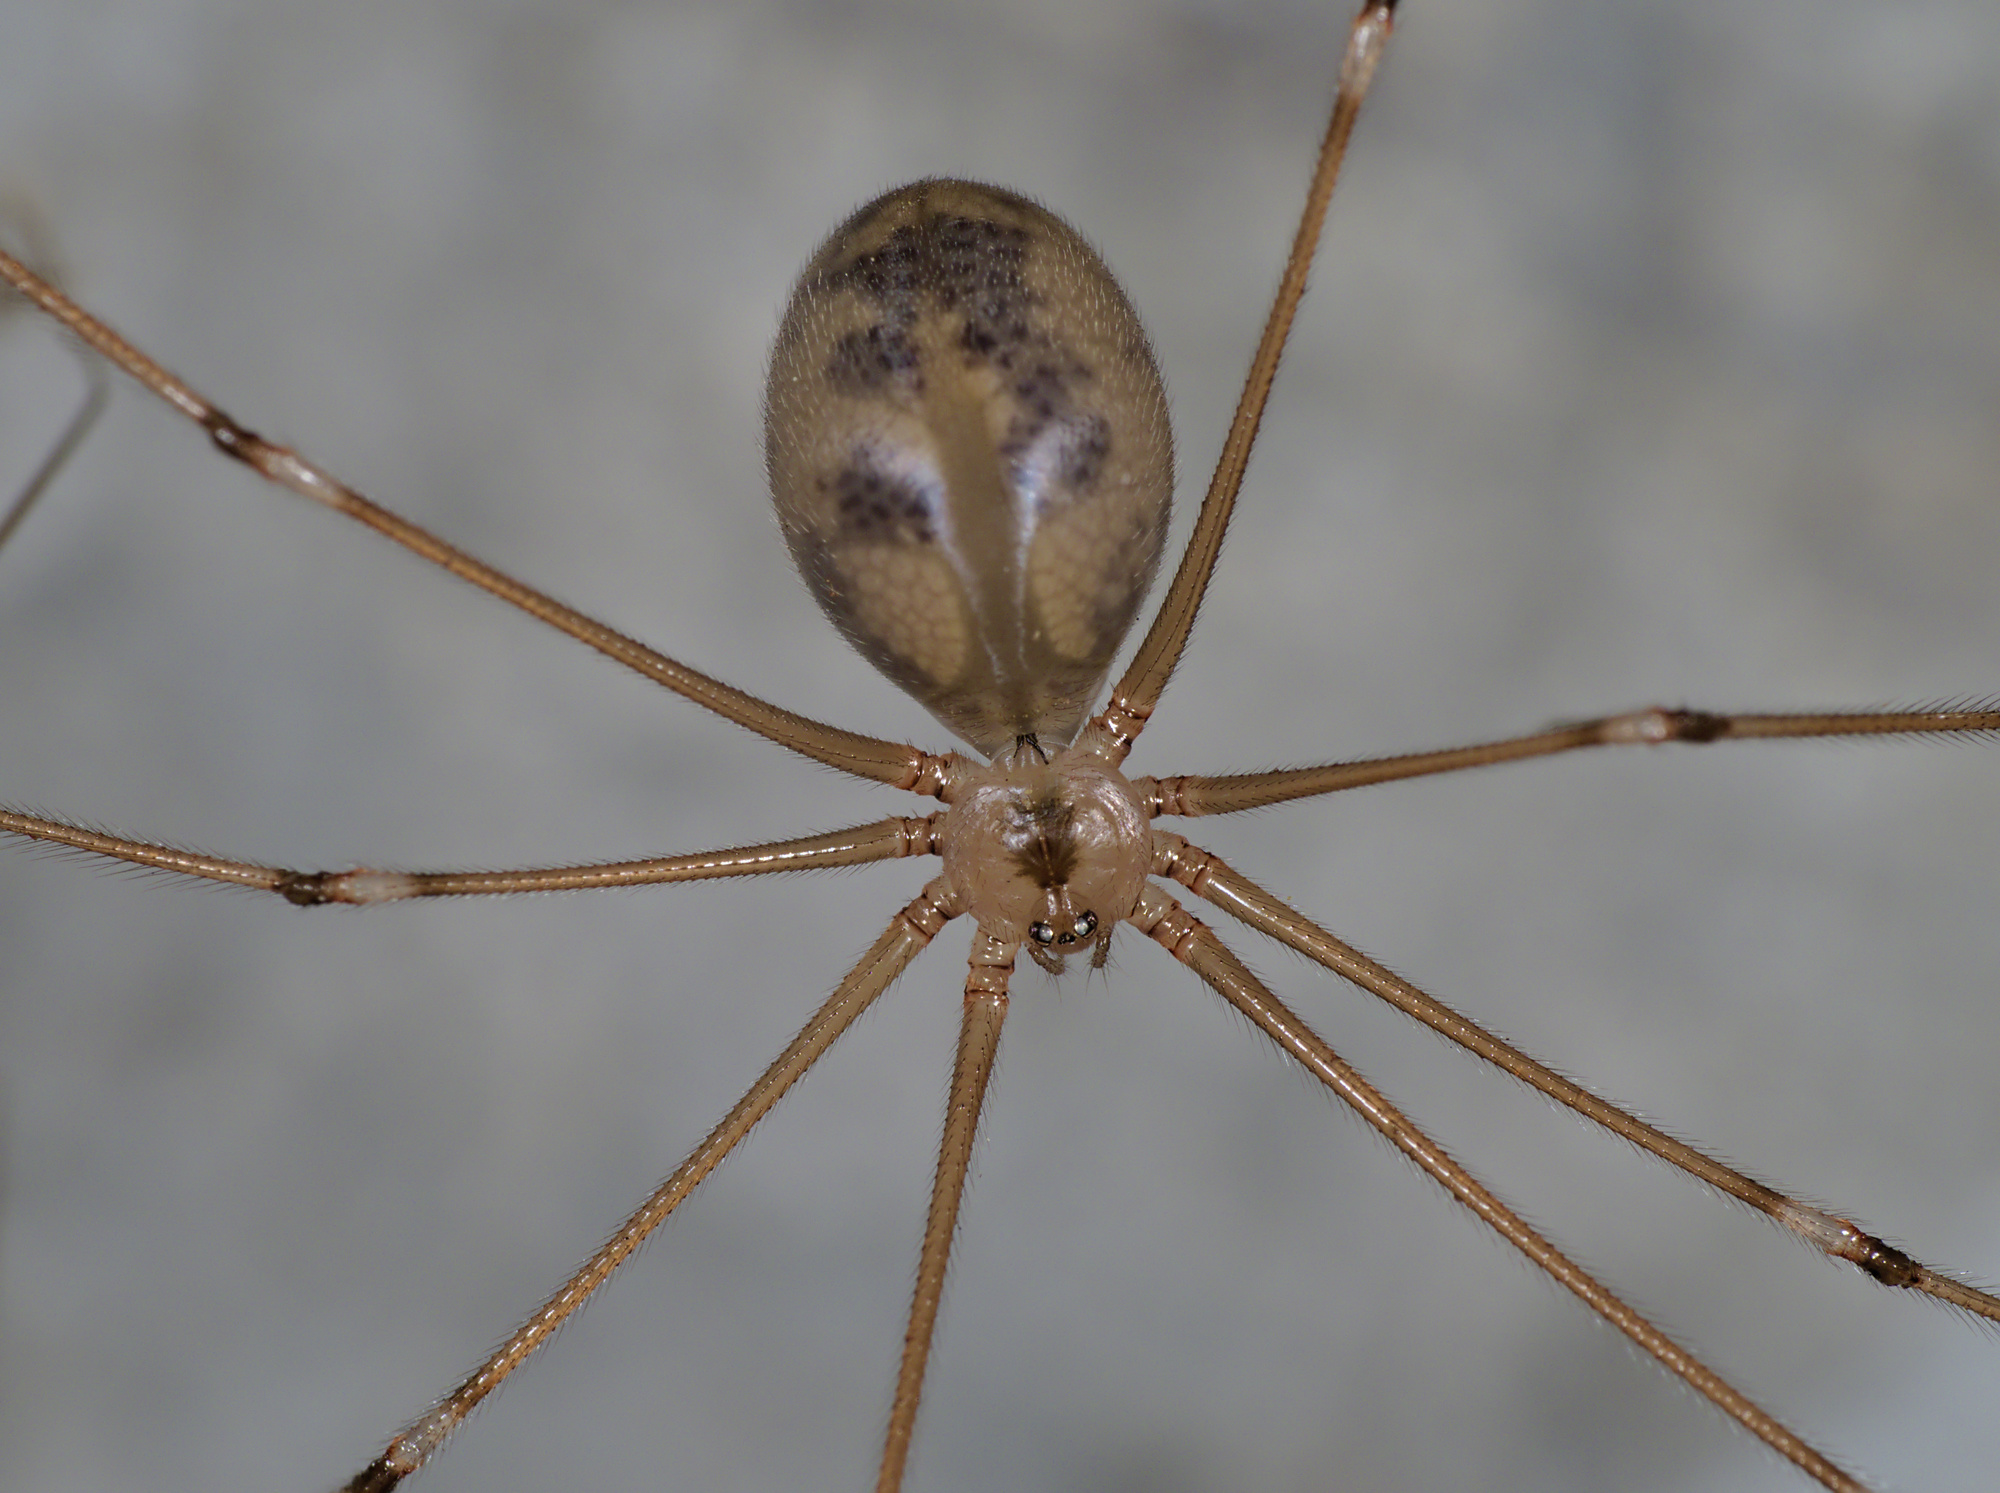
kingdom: Animalia
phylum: Arthropoda
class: Arachnida
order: Araneae
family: Pholcidae
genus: Pholcus
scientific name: Pholcus phalangioides
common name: Longbodied cellar spider
